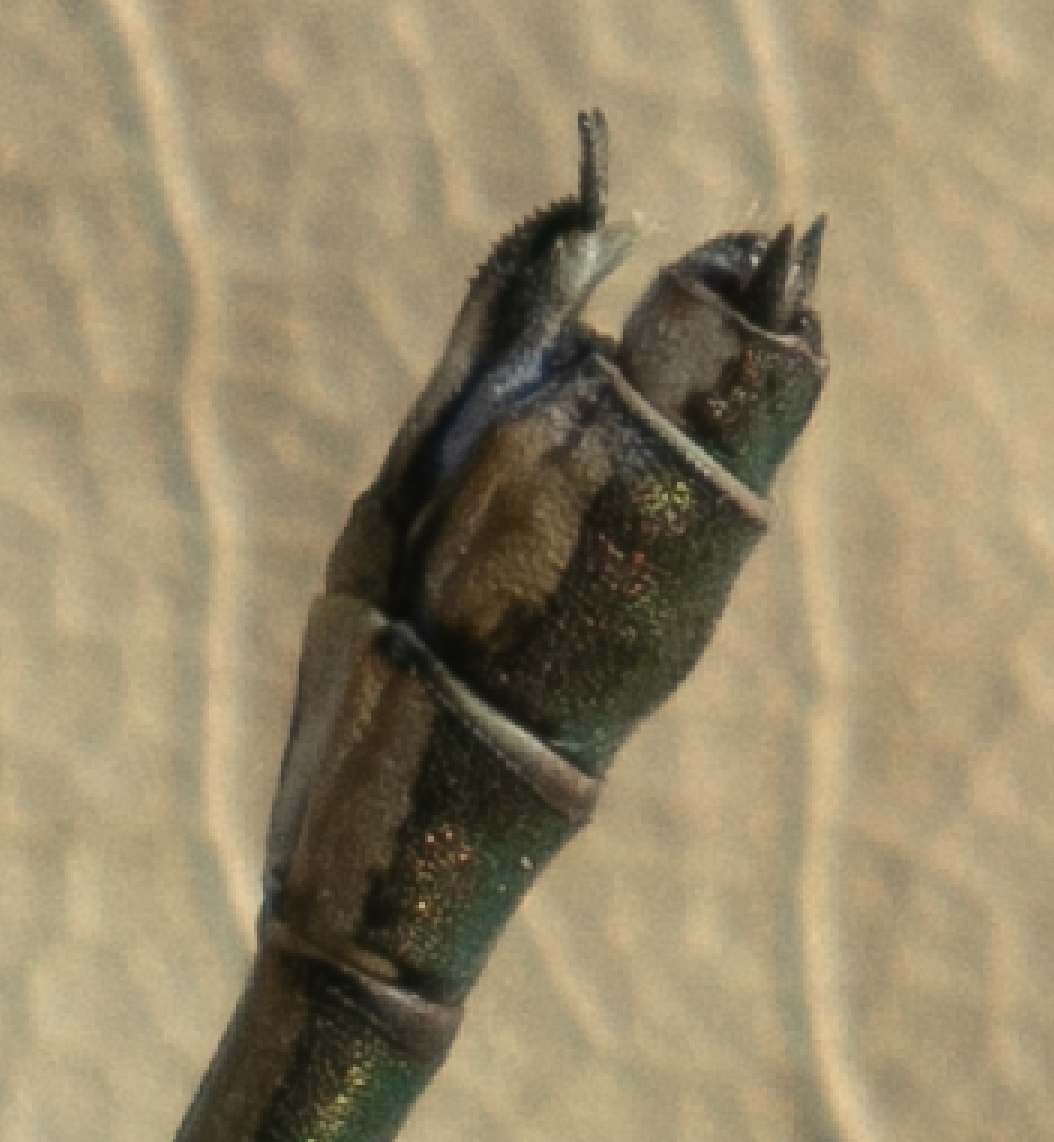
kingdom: Animalia
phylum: Arthropoda
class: Insecta
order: Odonata
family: Lestidae
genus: Chalcolestes
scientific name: Chalcolestes viridis
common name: Green emerald damselfly
